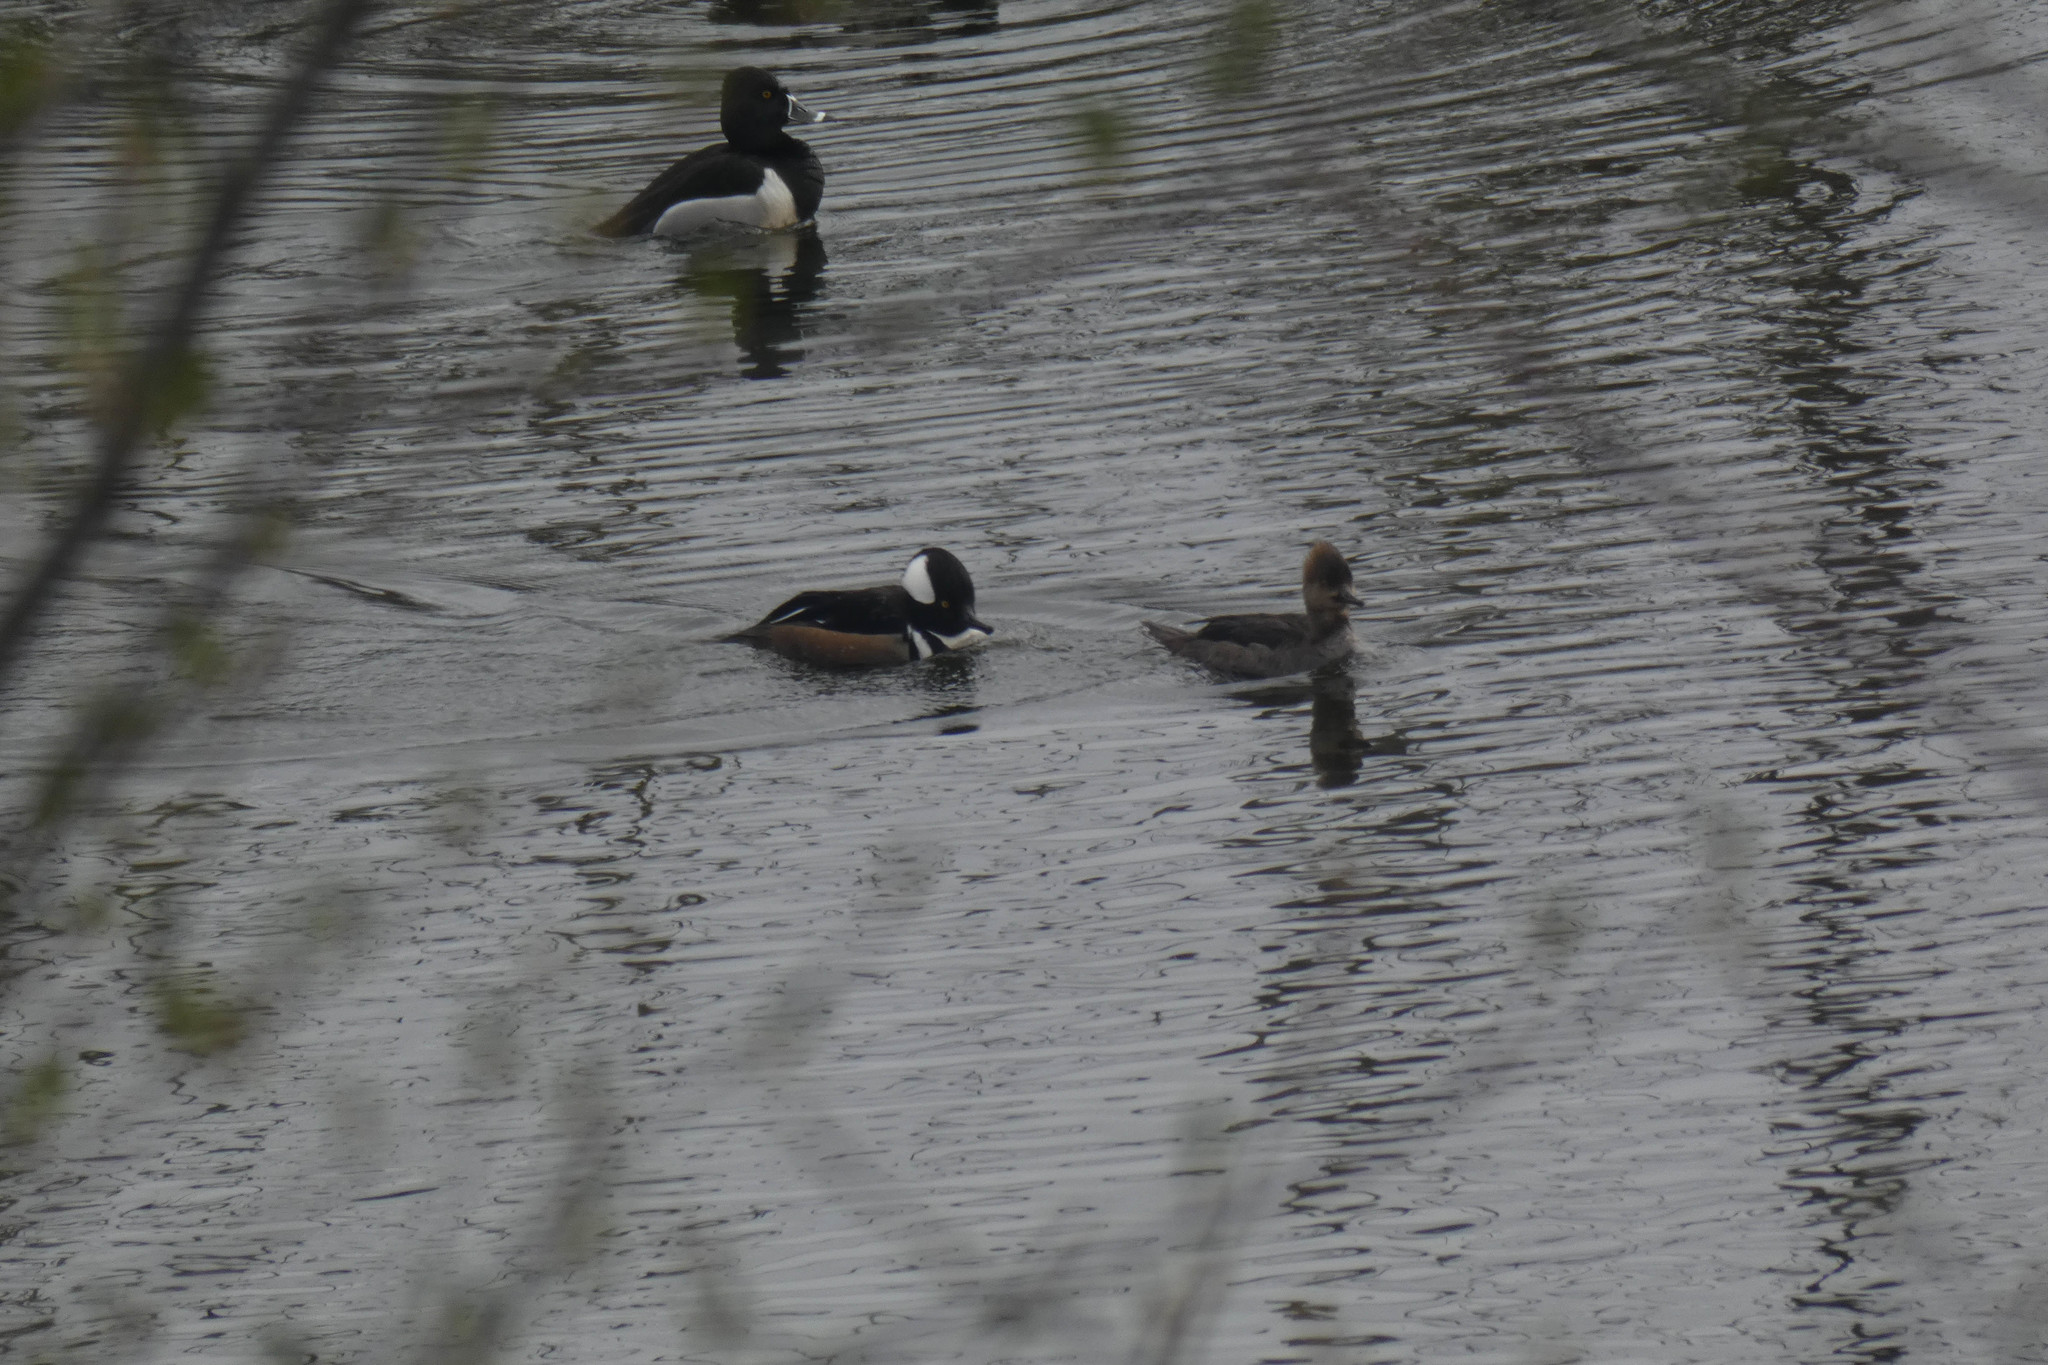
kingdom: Animalia
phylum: Chordata
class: Aves
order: Anseriformes
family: Anatidae
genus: Lophodytes
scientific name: Lophodytes cucullatus
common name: Hooded merganser
